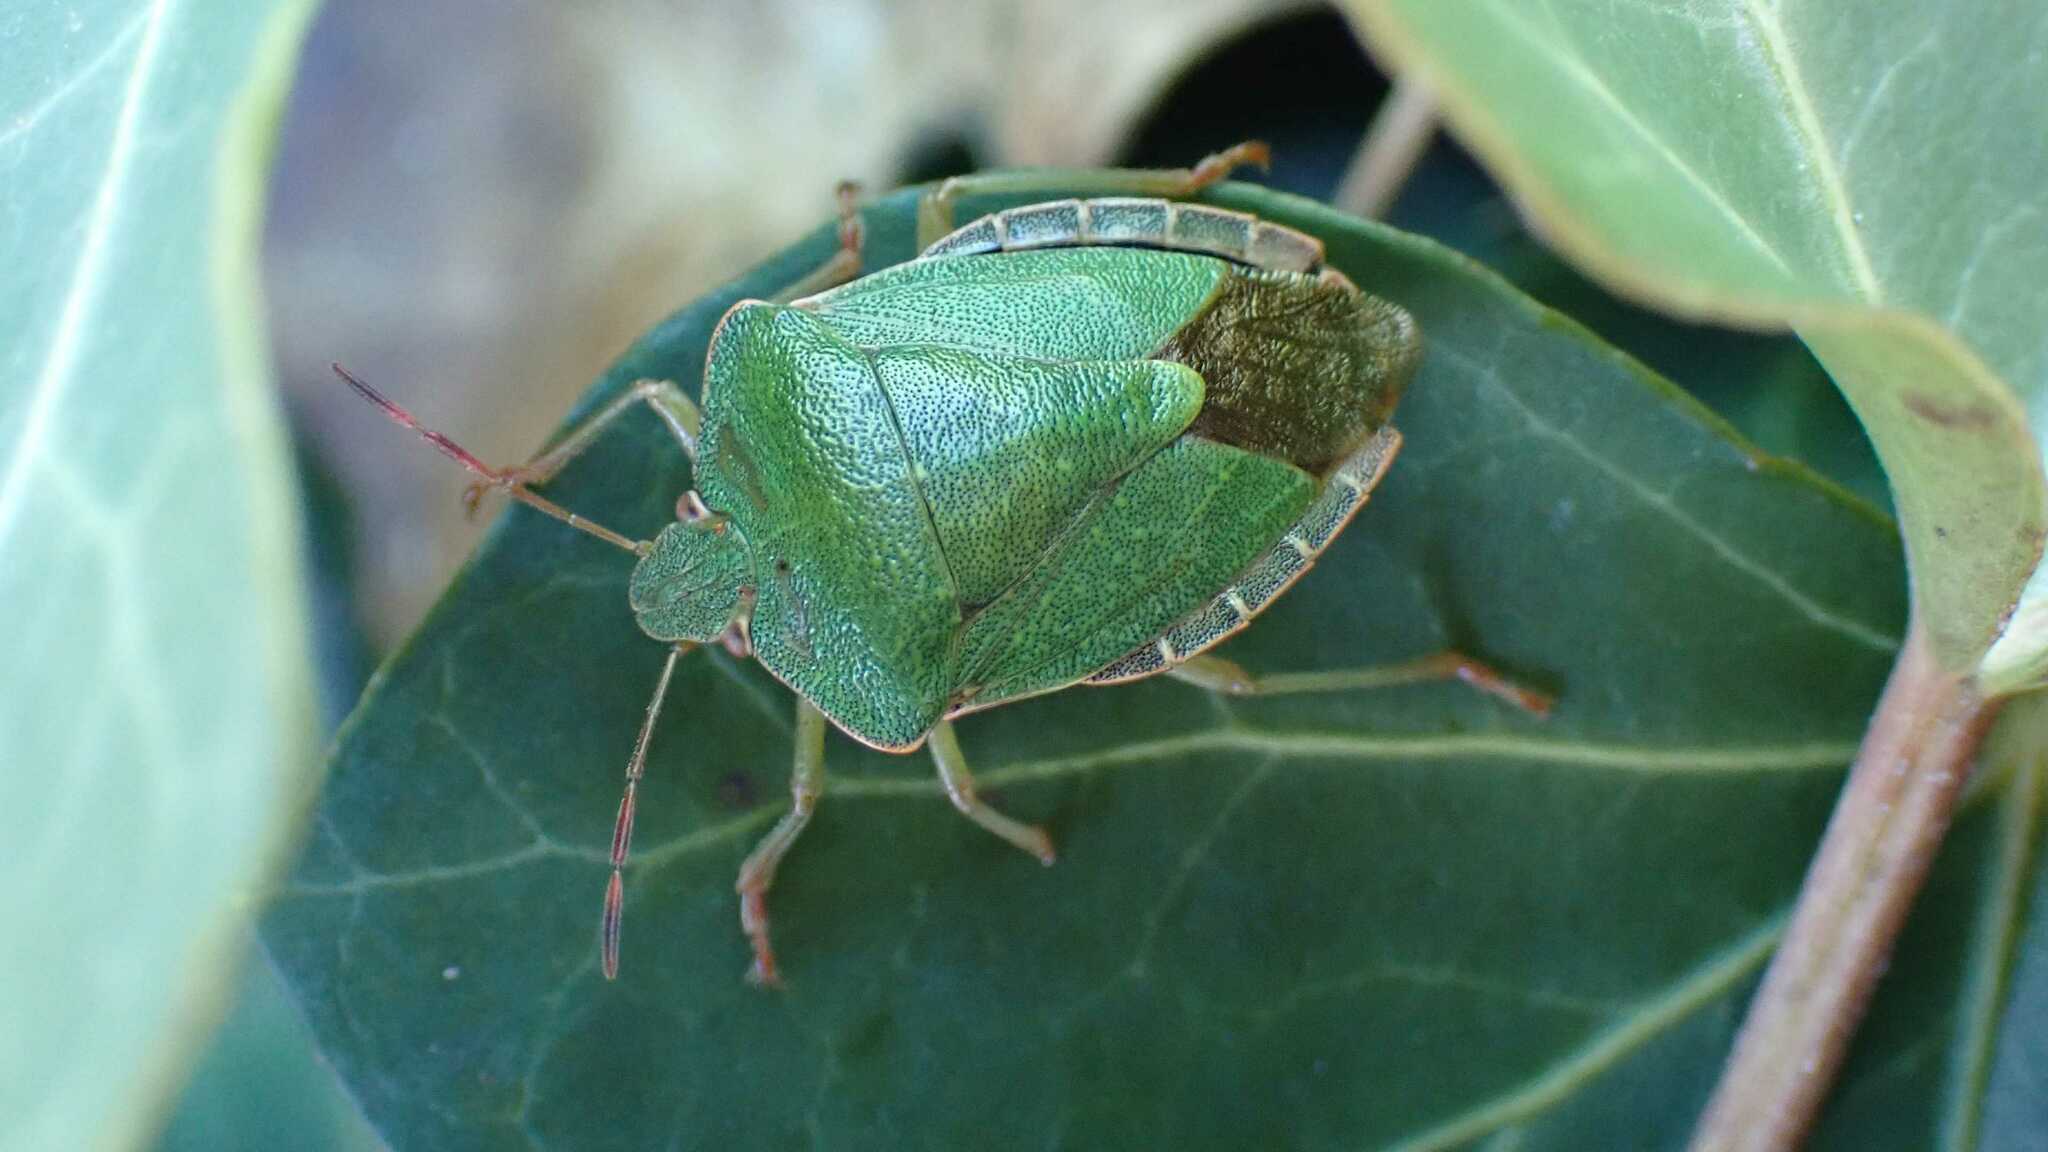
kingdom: Animalia
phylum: Arthropoda
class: Insecta
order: Hemiptera
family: Pentatomidae
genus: Palomena
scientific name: Palomena prasina
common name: Green shieldbug
